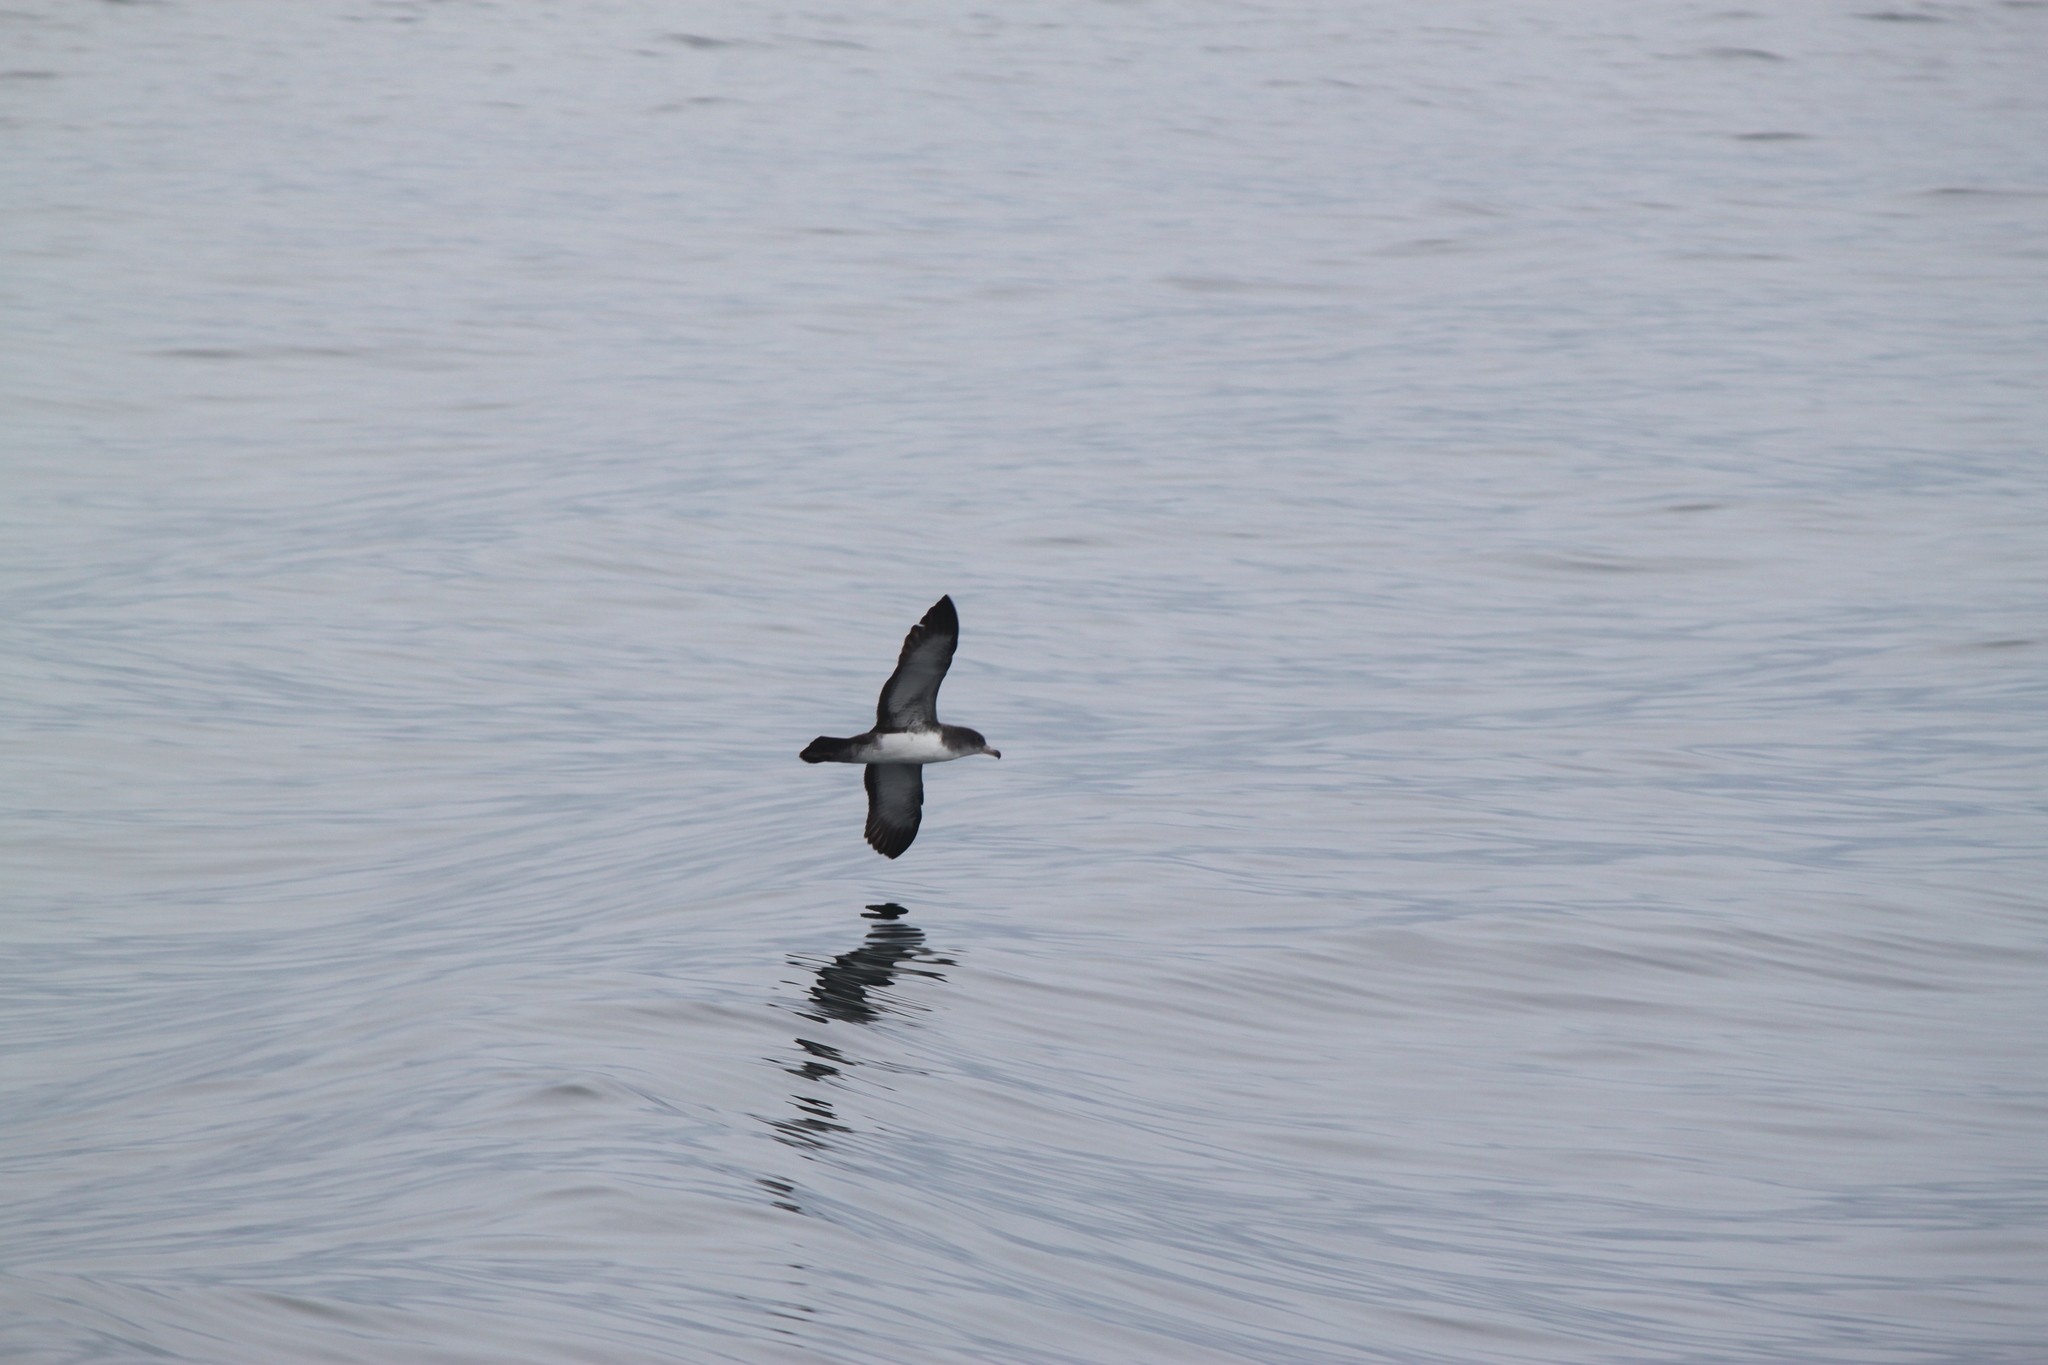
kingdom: Animalia
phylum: Chordata
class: Aves
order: Procellariiformes
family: Procellariidae
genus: Puffinus
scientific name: Puffinus creatopus
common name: Pink-footed shearwater
